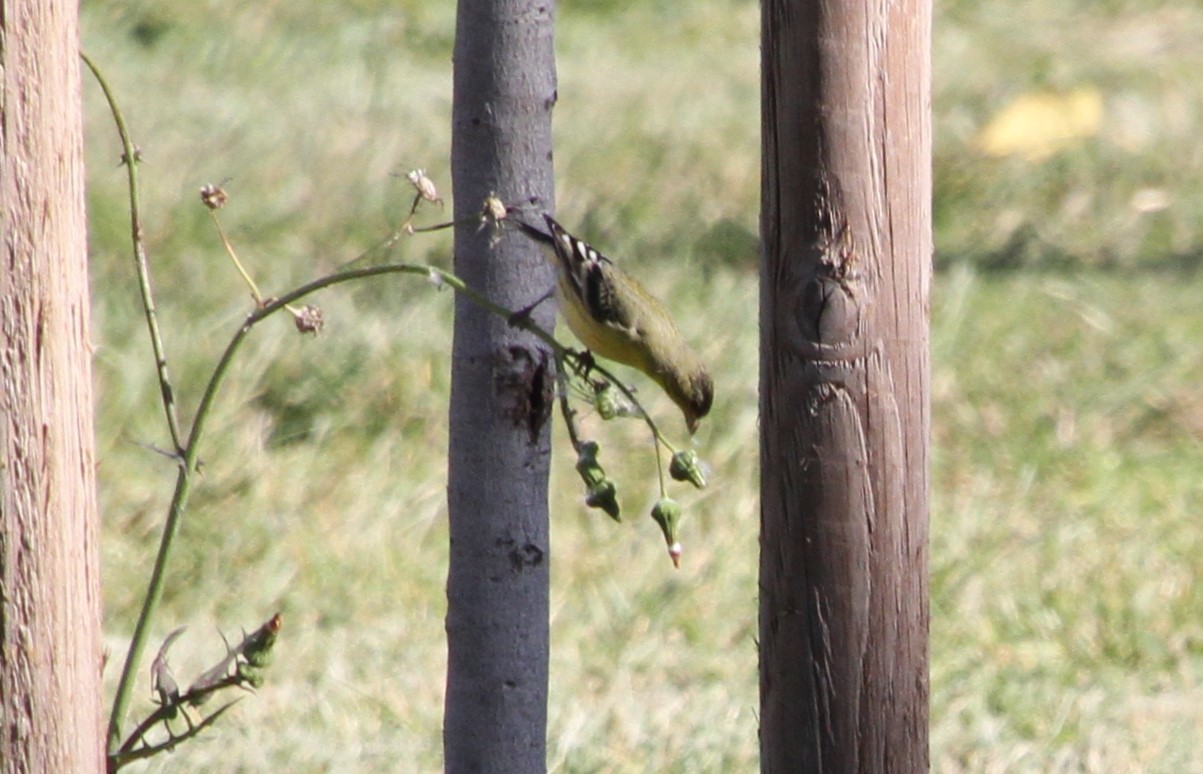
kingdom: Animalia
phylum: Chordata
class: Aves
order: Passeriformes
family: Fringillidae
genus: Spinus
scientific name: Spinus psaltria
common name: Lesser goldfinch
